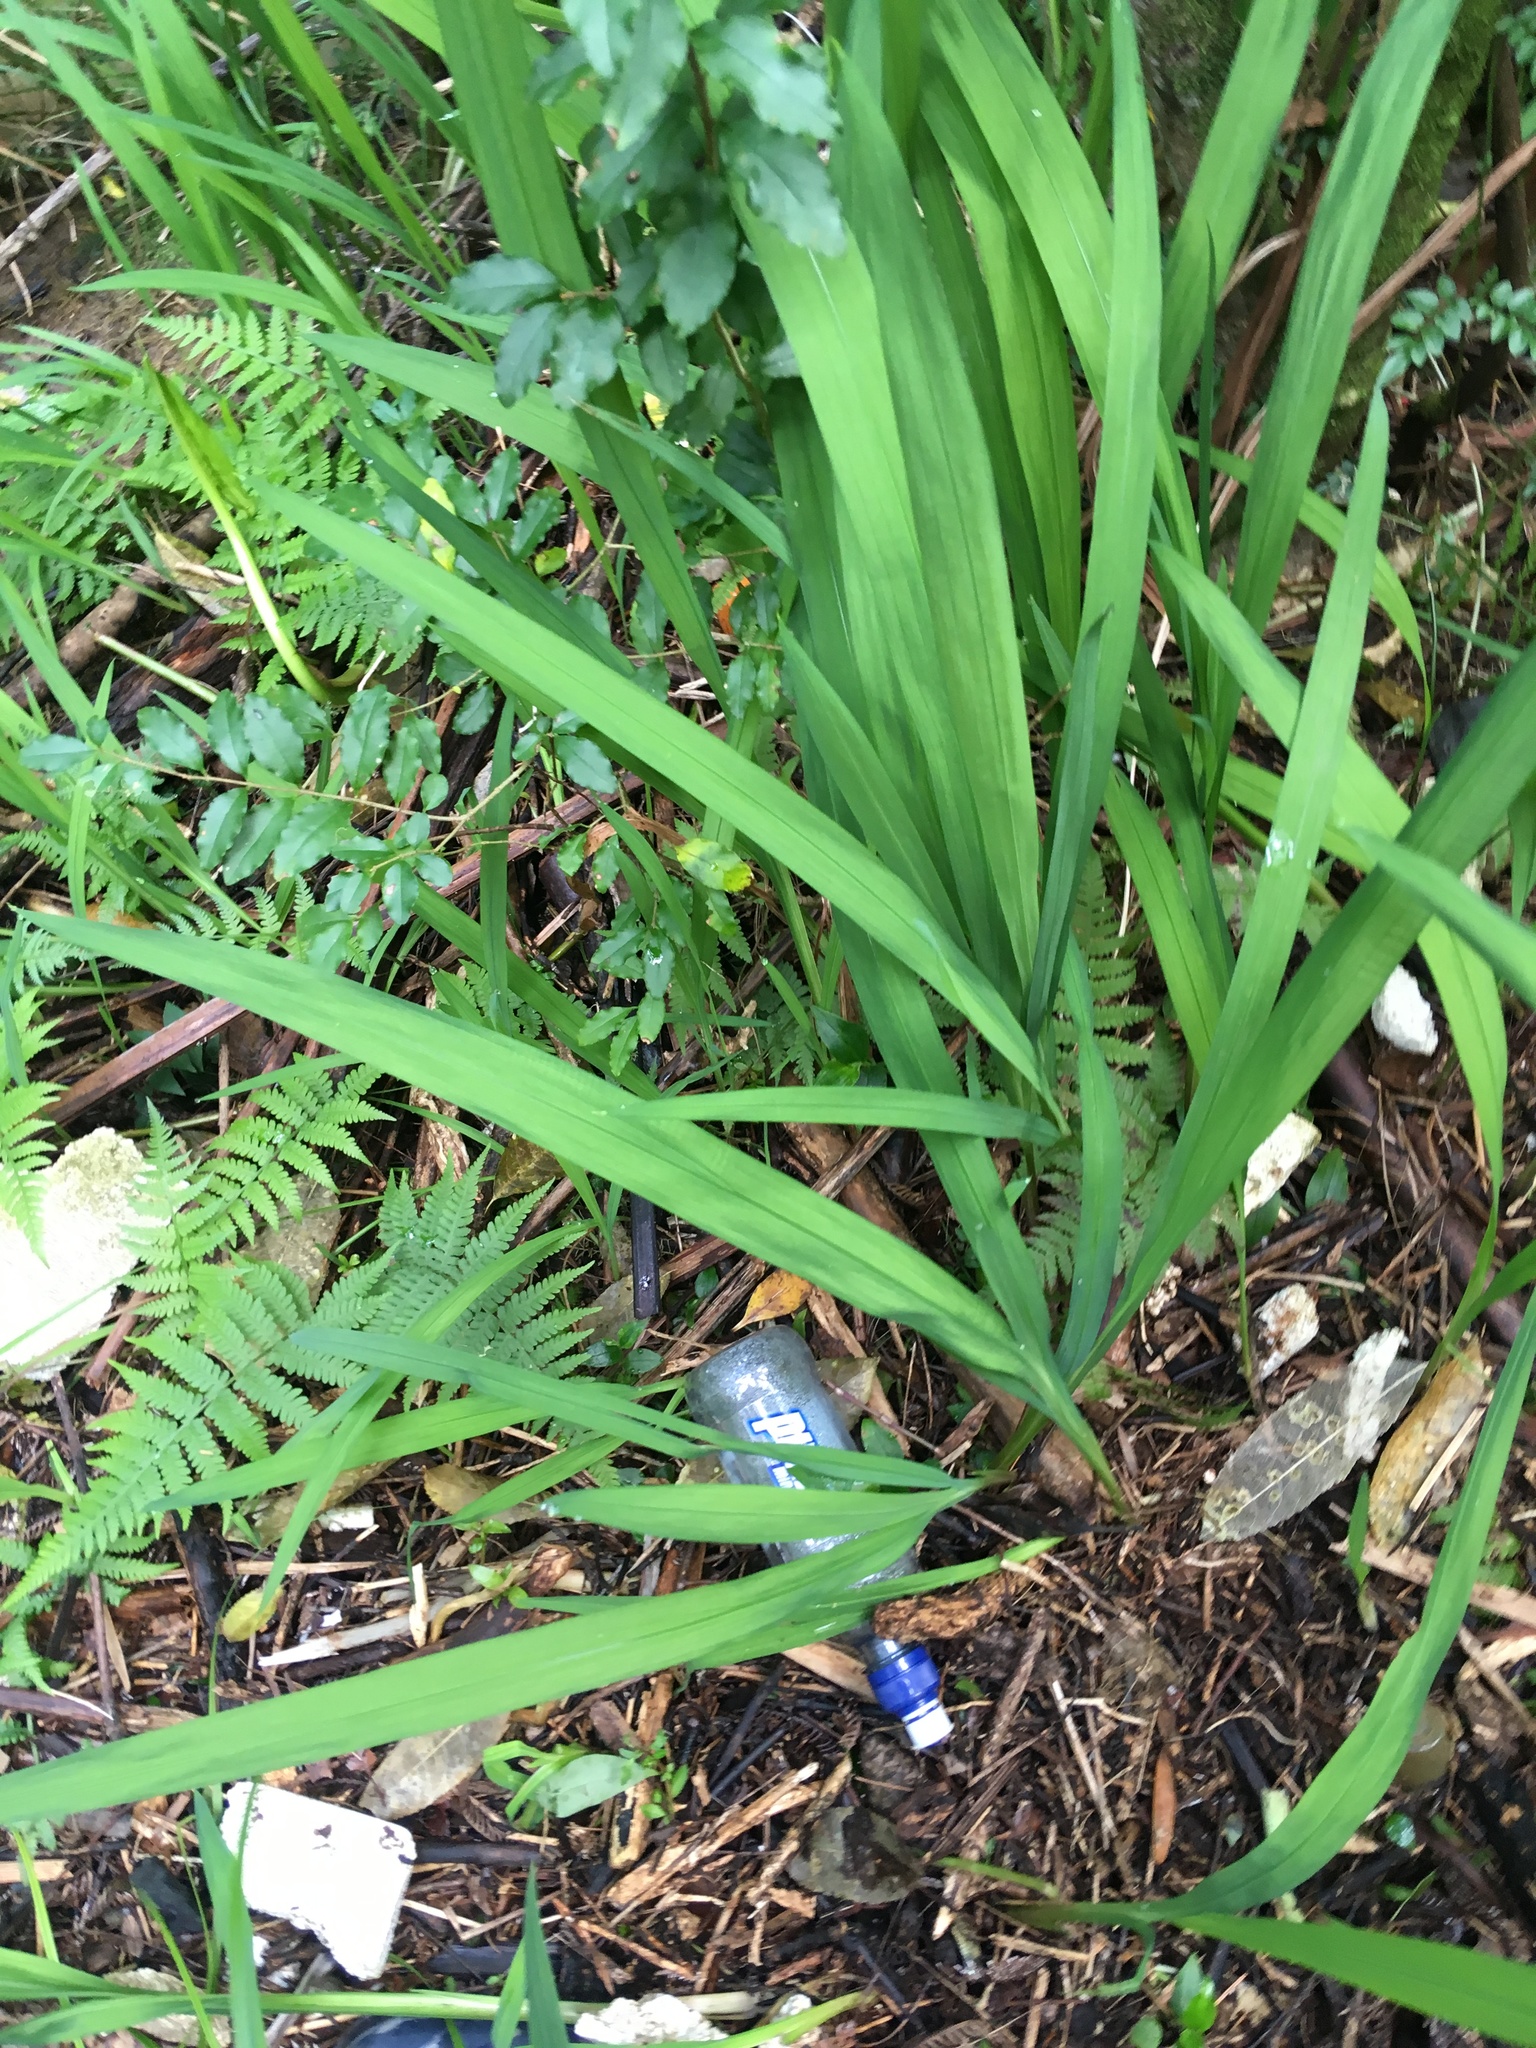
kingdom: Plantae
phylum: Tracheophyta
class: Liliopsida
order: Asparagales
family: Iridaceae
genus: Crocosmia
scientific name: Crocosmia crocosmiiflora
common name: Montbretia
